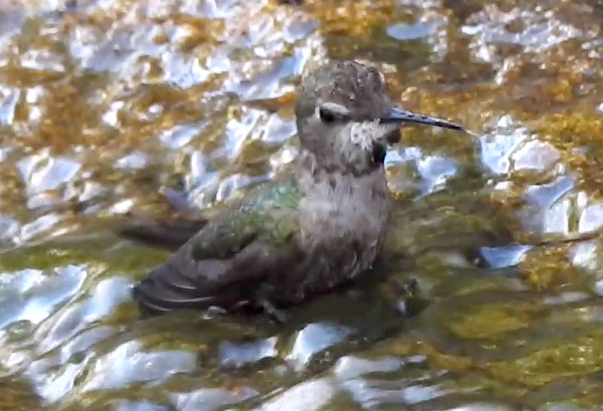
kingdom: Animalia
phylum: Chordata
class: Aves
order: Apodiformes
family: Trochilidae
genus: Calypte
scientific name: Calypte anna
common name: Anna's hummingbird
